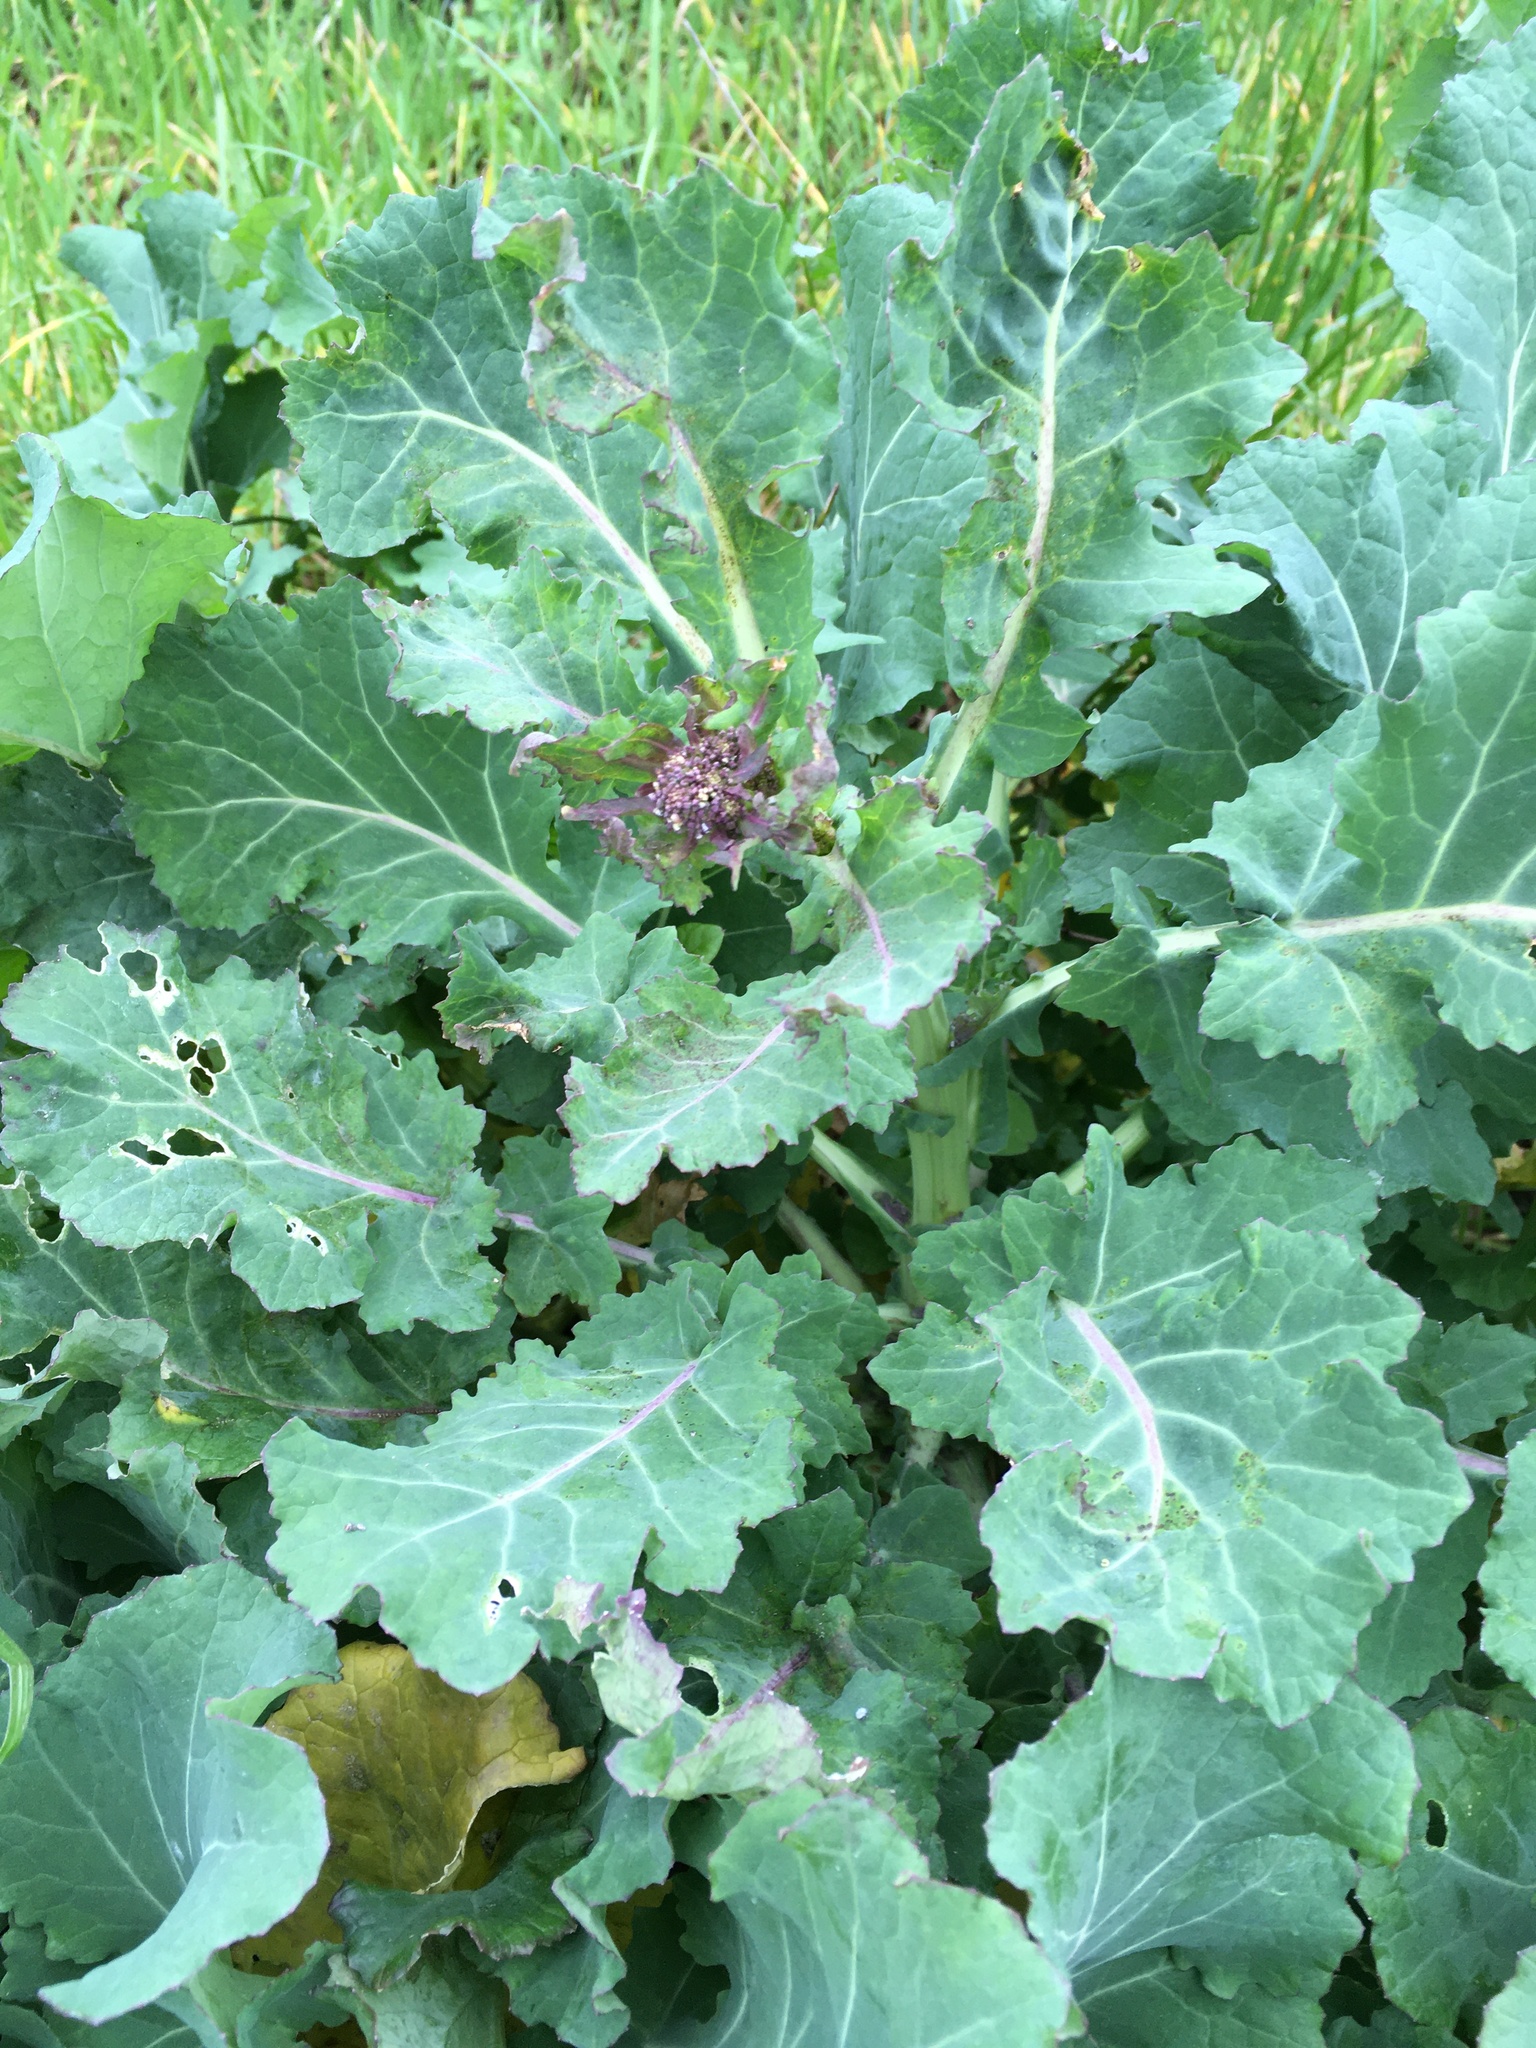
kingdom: Plantae
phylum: Tracheophyta
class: Magnoliopsida
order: Brassicales
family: Brassicaceae
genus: Brassica
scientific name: Brassica oleracea
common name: Cabbage
